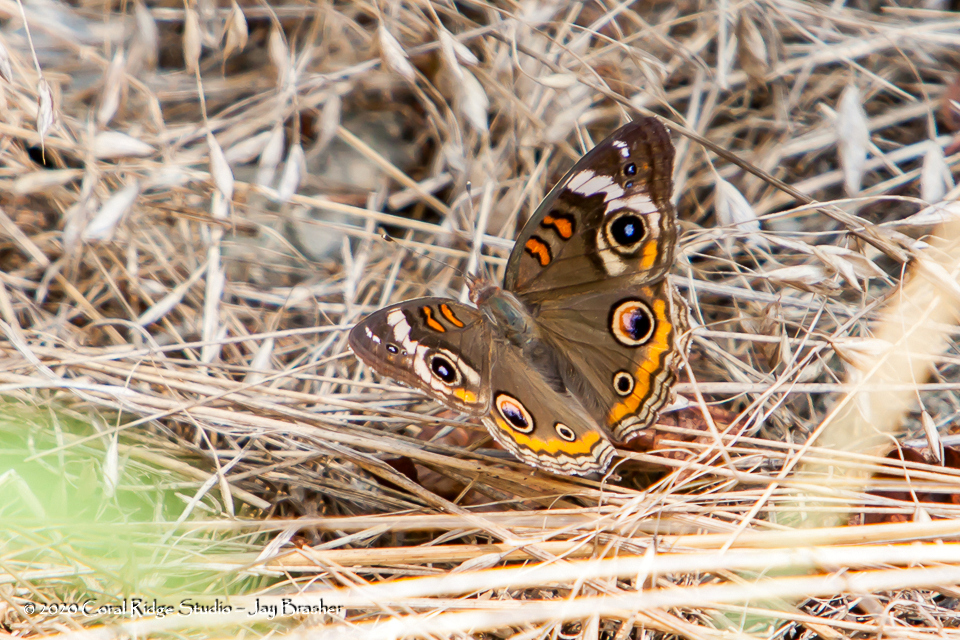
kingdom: Animalia
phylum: Arthropoda
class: Insecta
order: Lepidoptera
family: Nymphalidae
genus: Junonia
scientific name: Junonia coenia
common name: Common buckeye
